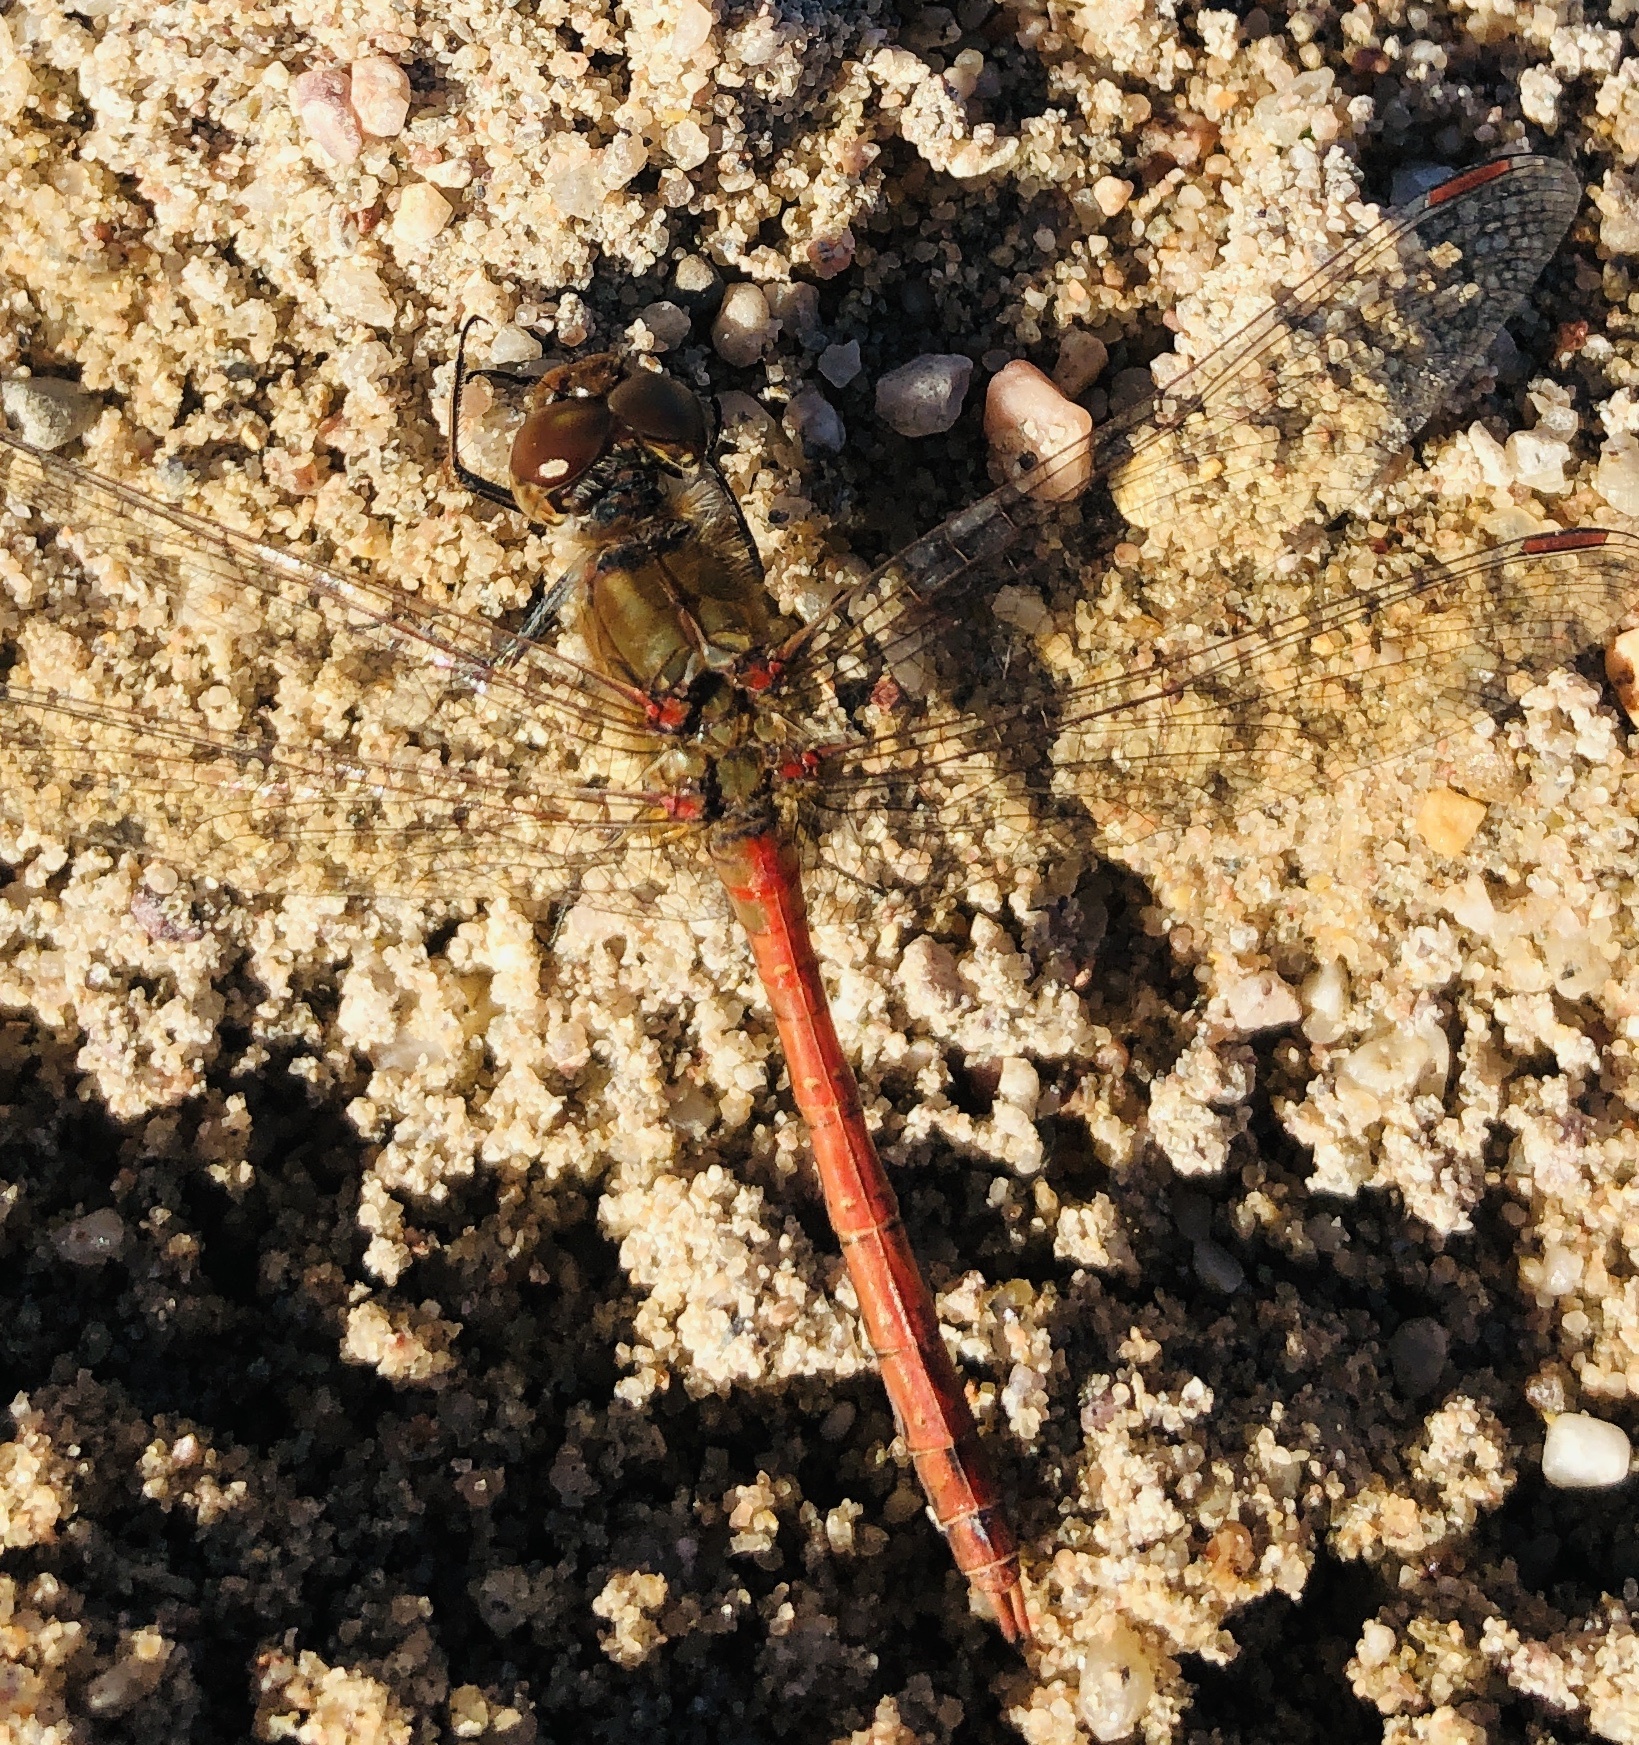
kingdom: Animalia
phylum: Arthropoda
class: Insecta
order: Odonata
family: Libellulidae
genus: Sympetrum
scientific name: Sympetrum striolatum
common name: Common darter
